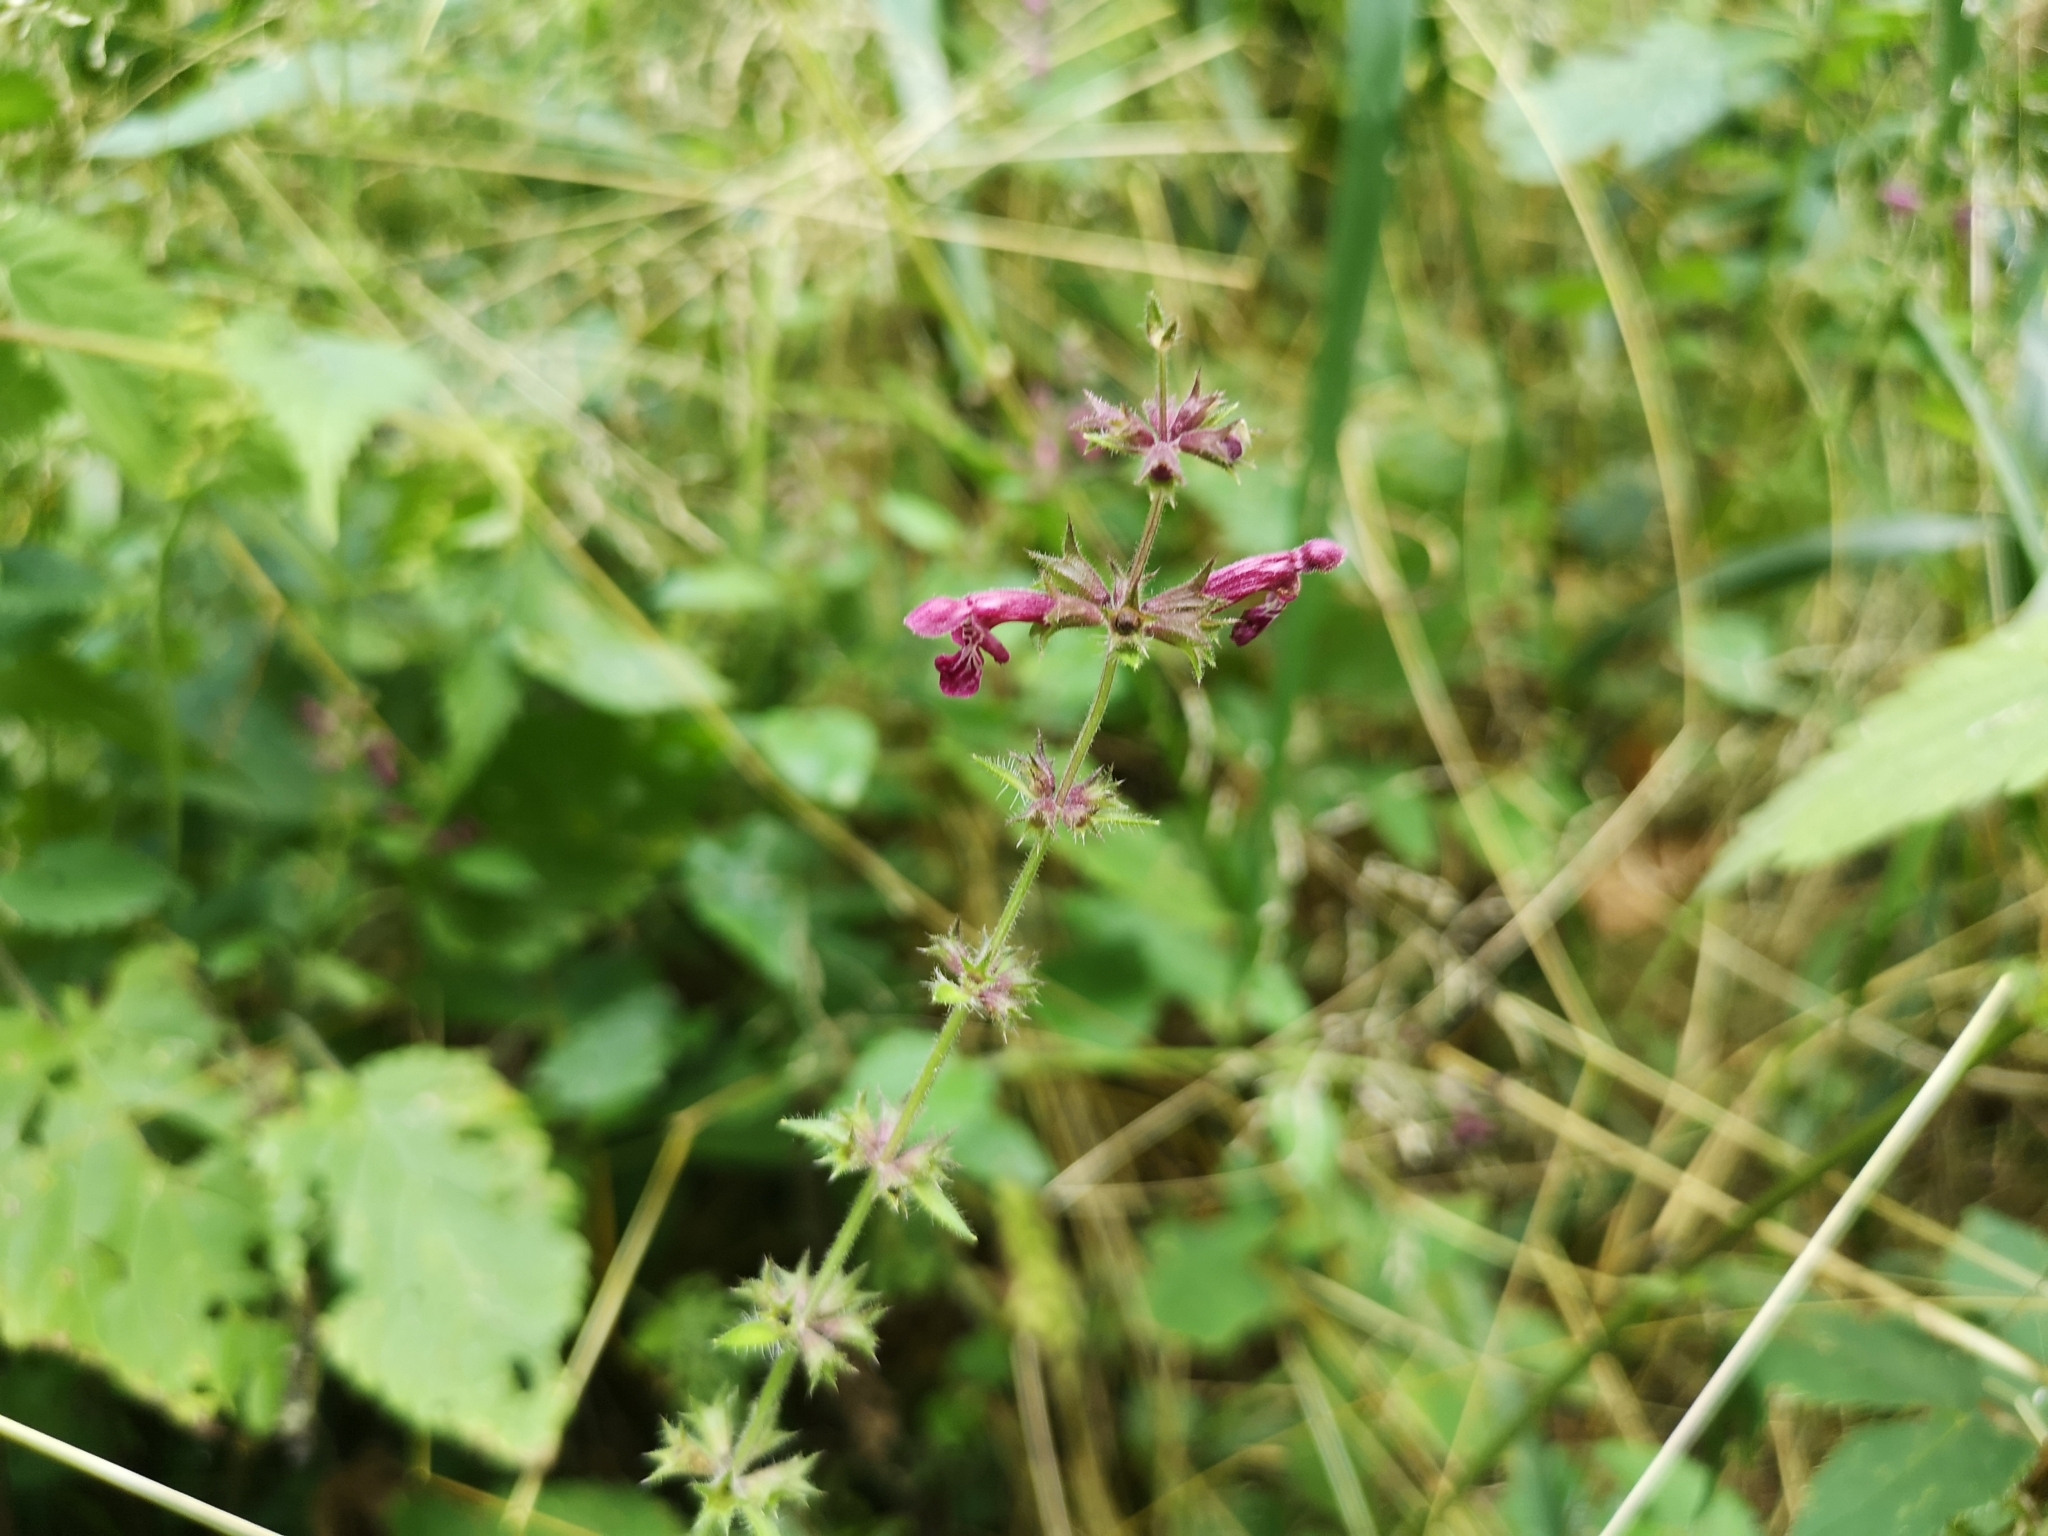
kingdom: Plantae
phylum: Tracheophyta
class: Magnoliopsida
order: Lamiales
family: Lamiaceae
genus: Stachys
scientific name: Stachys sylvatica
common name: Hedge woundwort
